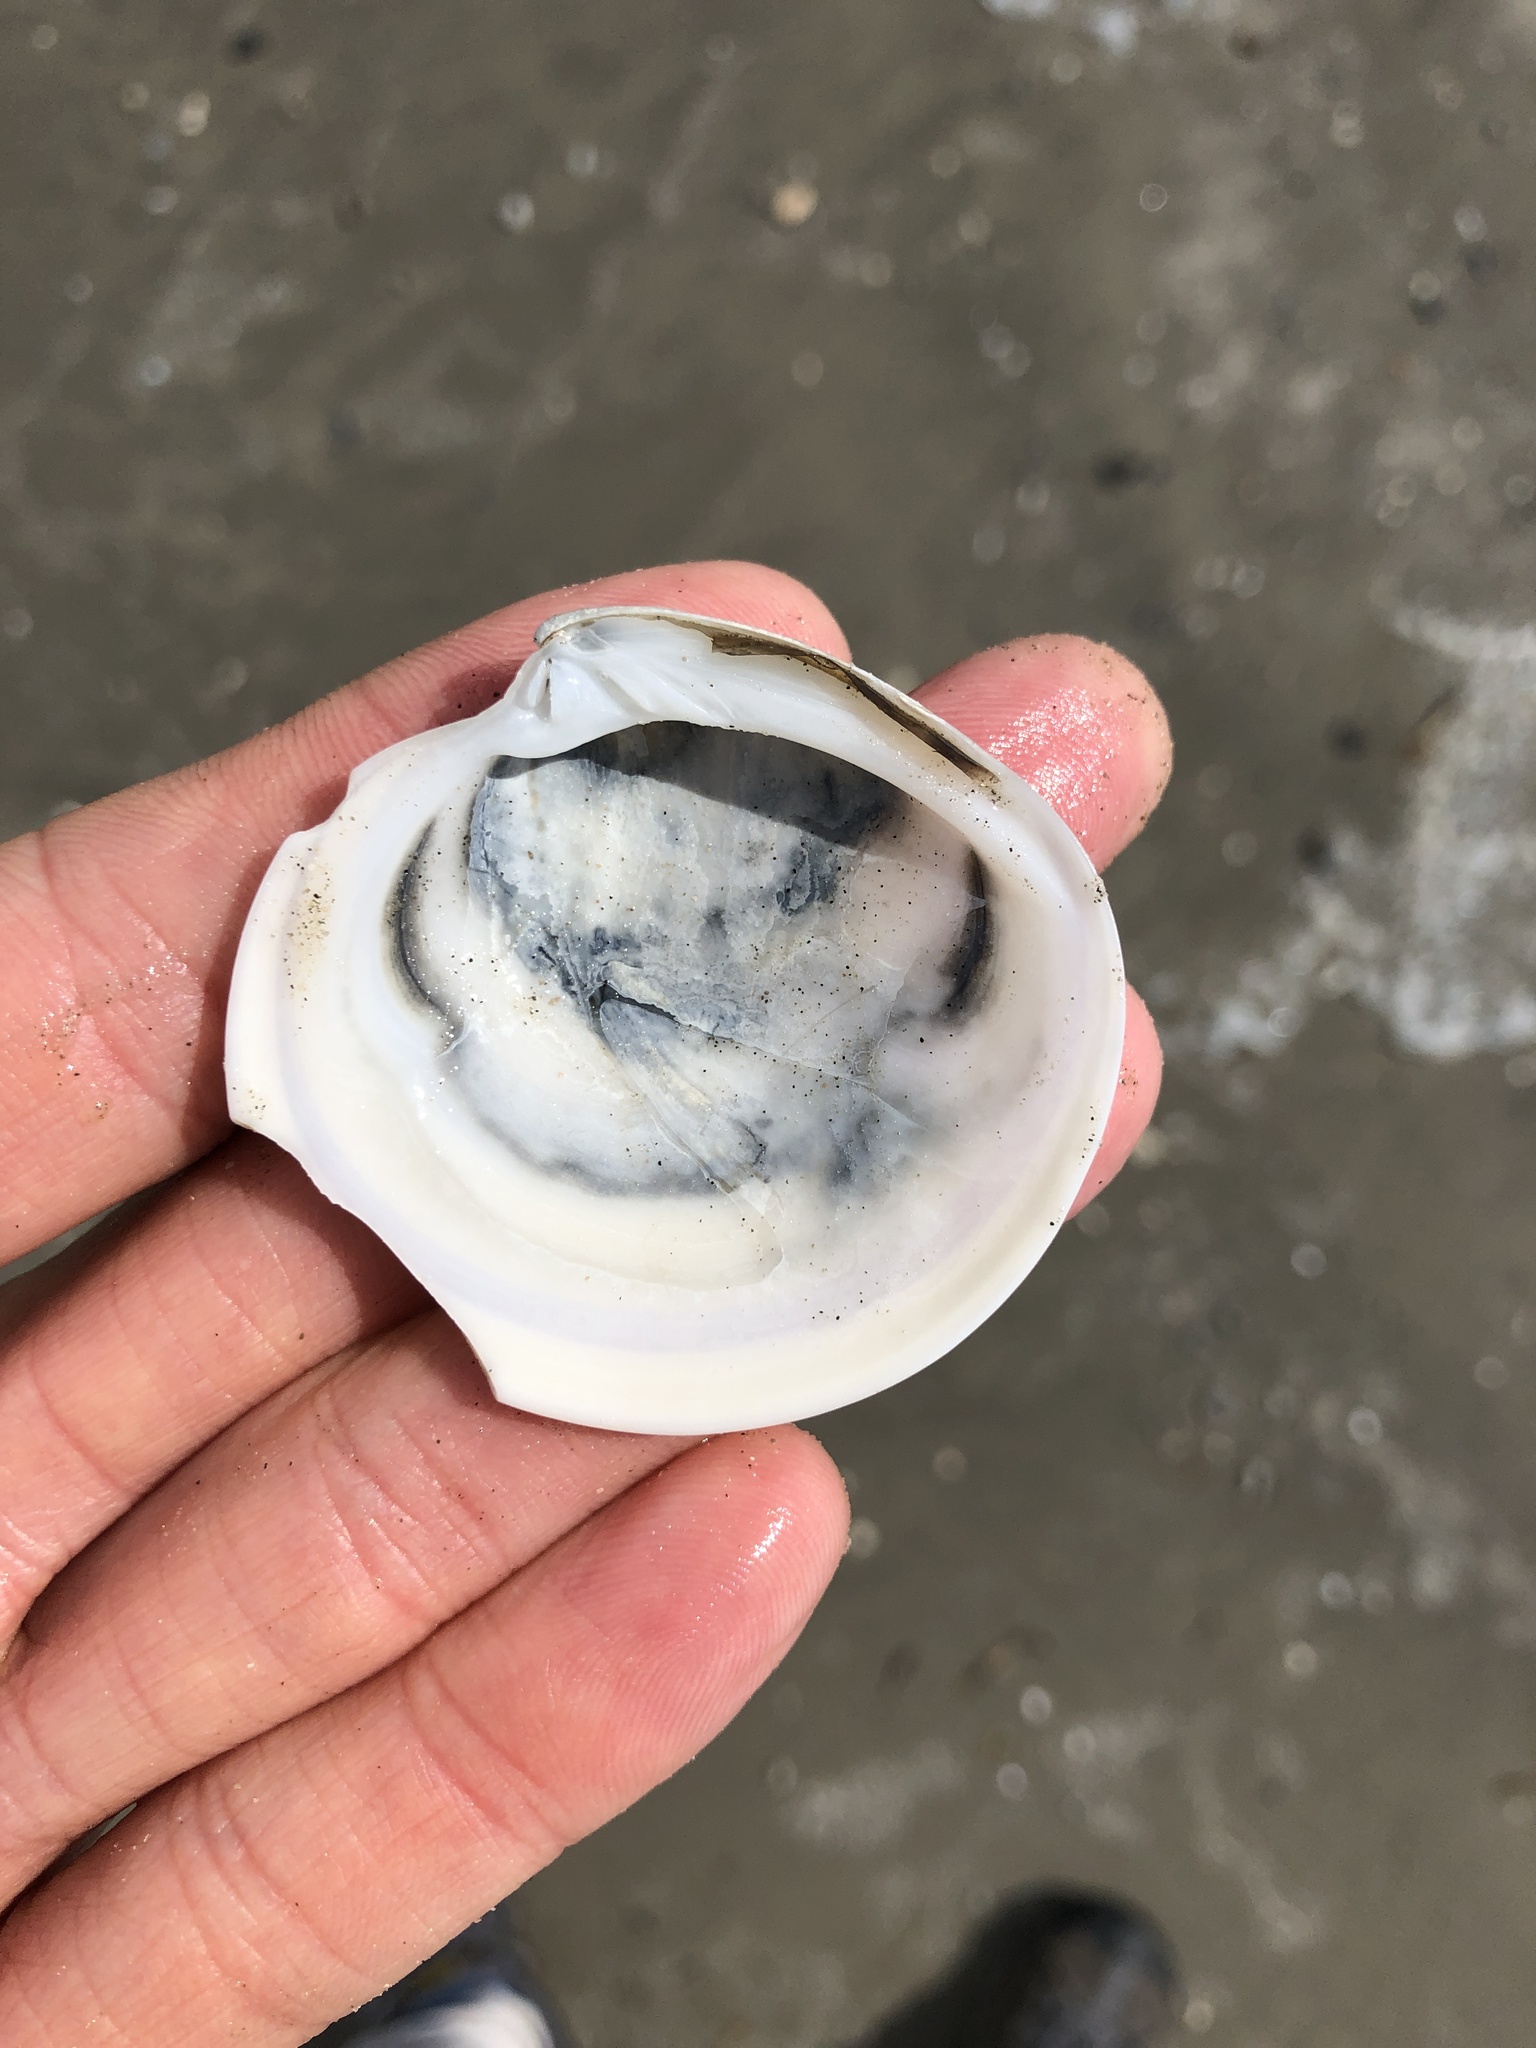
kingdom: Animalia
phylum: Mollusca
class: Bivalvia
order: Venerida
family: Veneridae
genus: Dosinia
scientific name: Dosinia discus
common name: Disk dosinia
